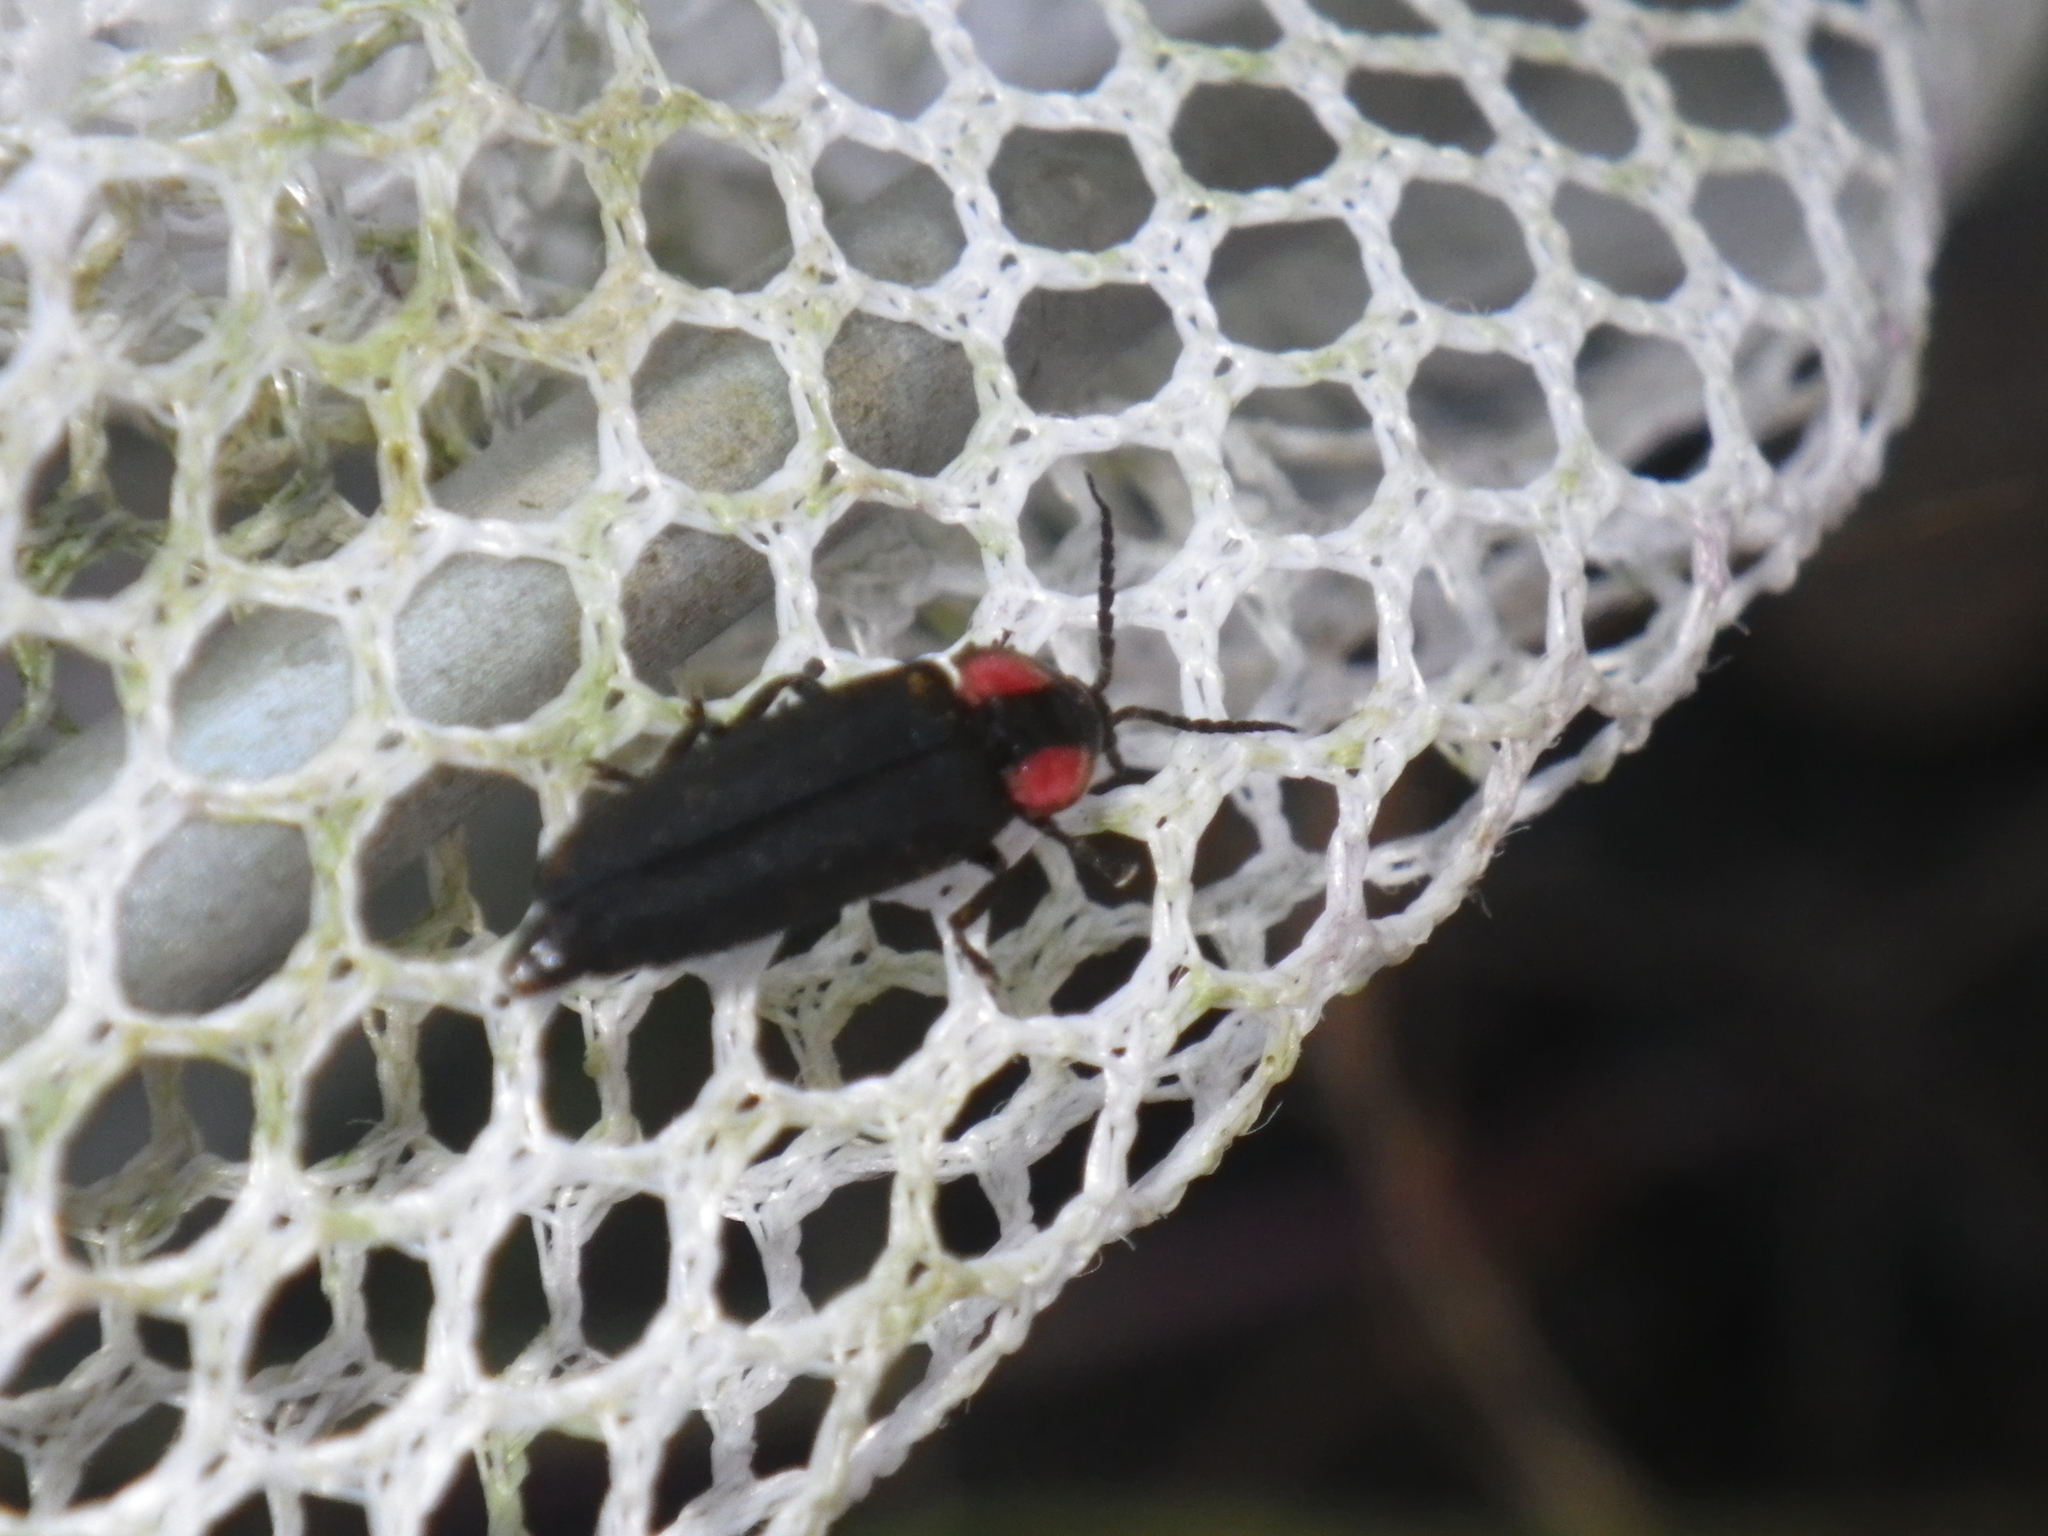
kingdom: Animalia
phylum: Arthropoda
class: Insecta
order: Coleoptera
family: Lampyridae
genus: Photinus
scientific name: Photinus californica
